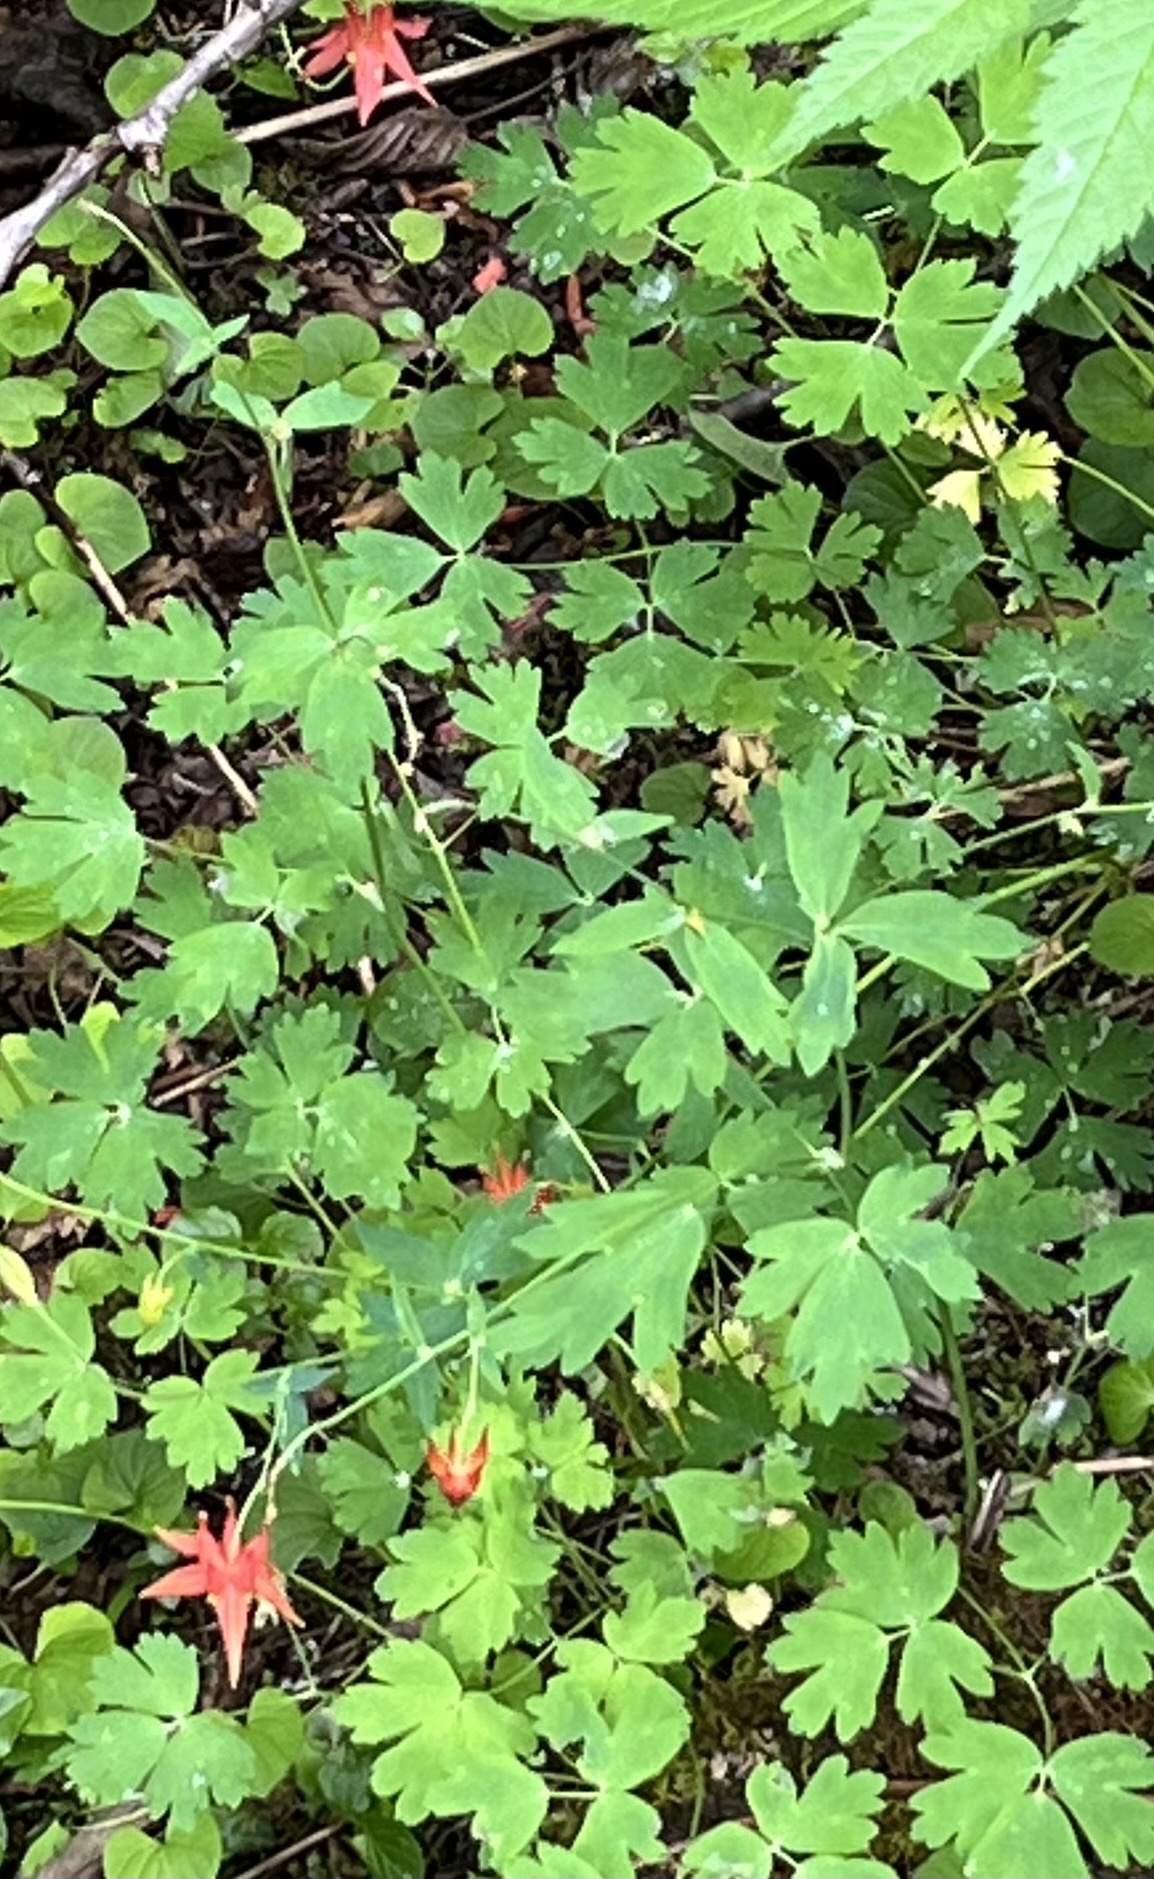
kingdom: Plantae
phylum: Tracheophyta
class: Magnoliopsida
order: Ranunculales
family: Ranunculaceae
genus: Aquilegia
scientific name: Aquilegia formosa
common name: Sitka columbine
